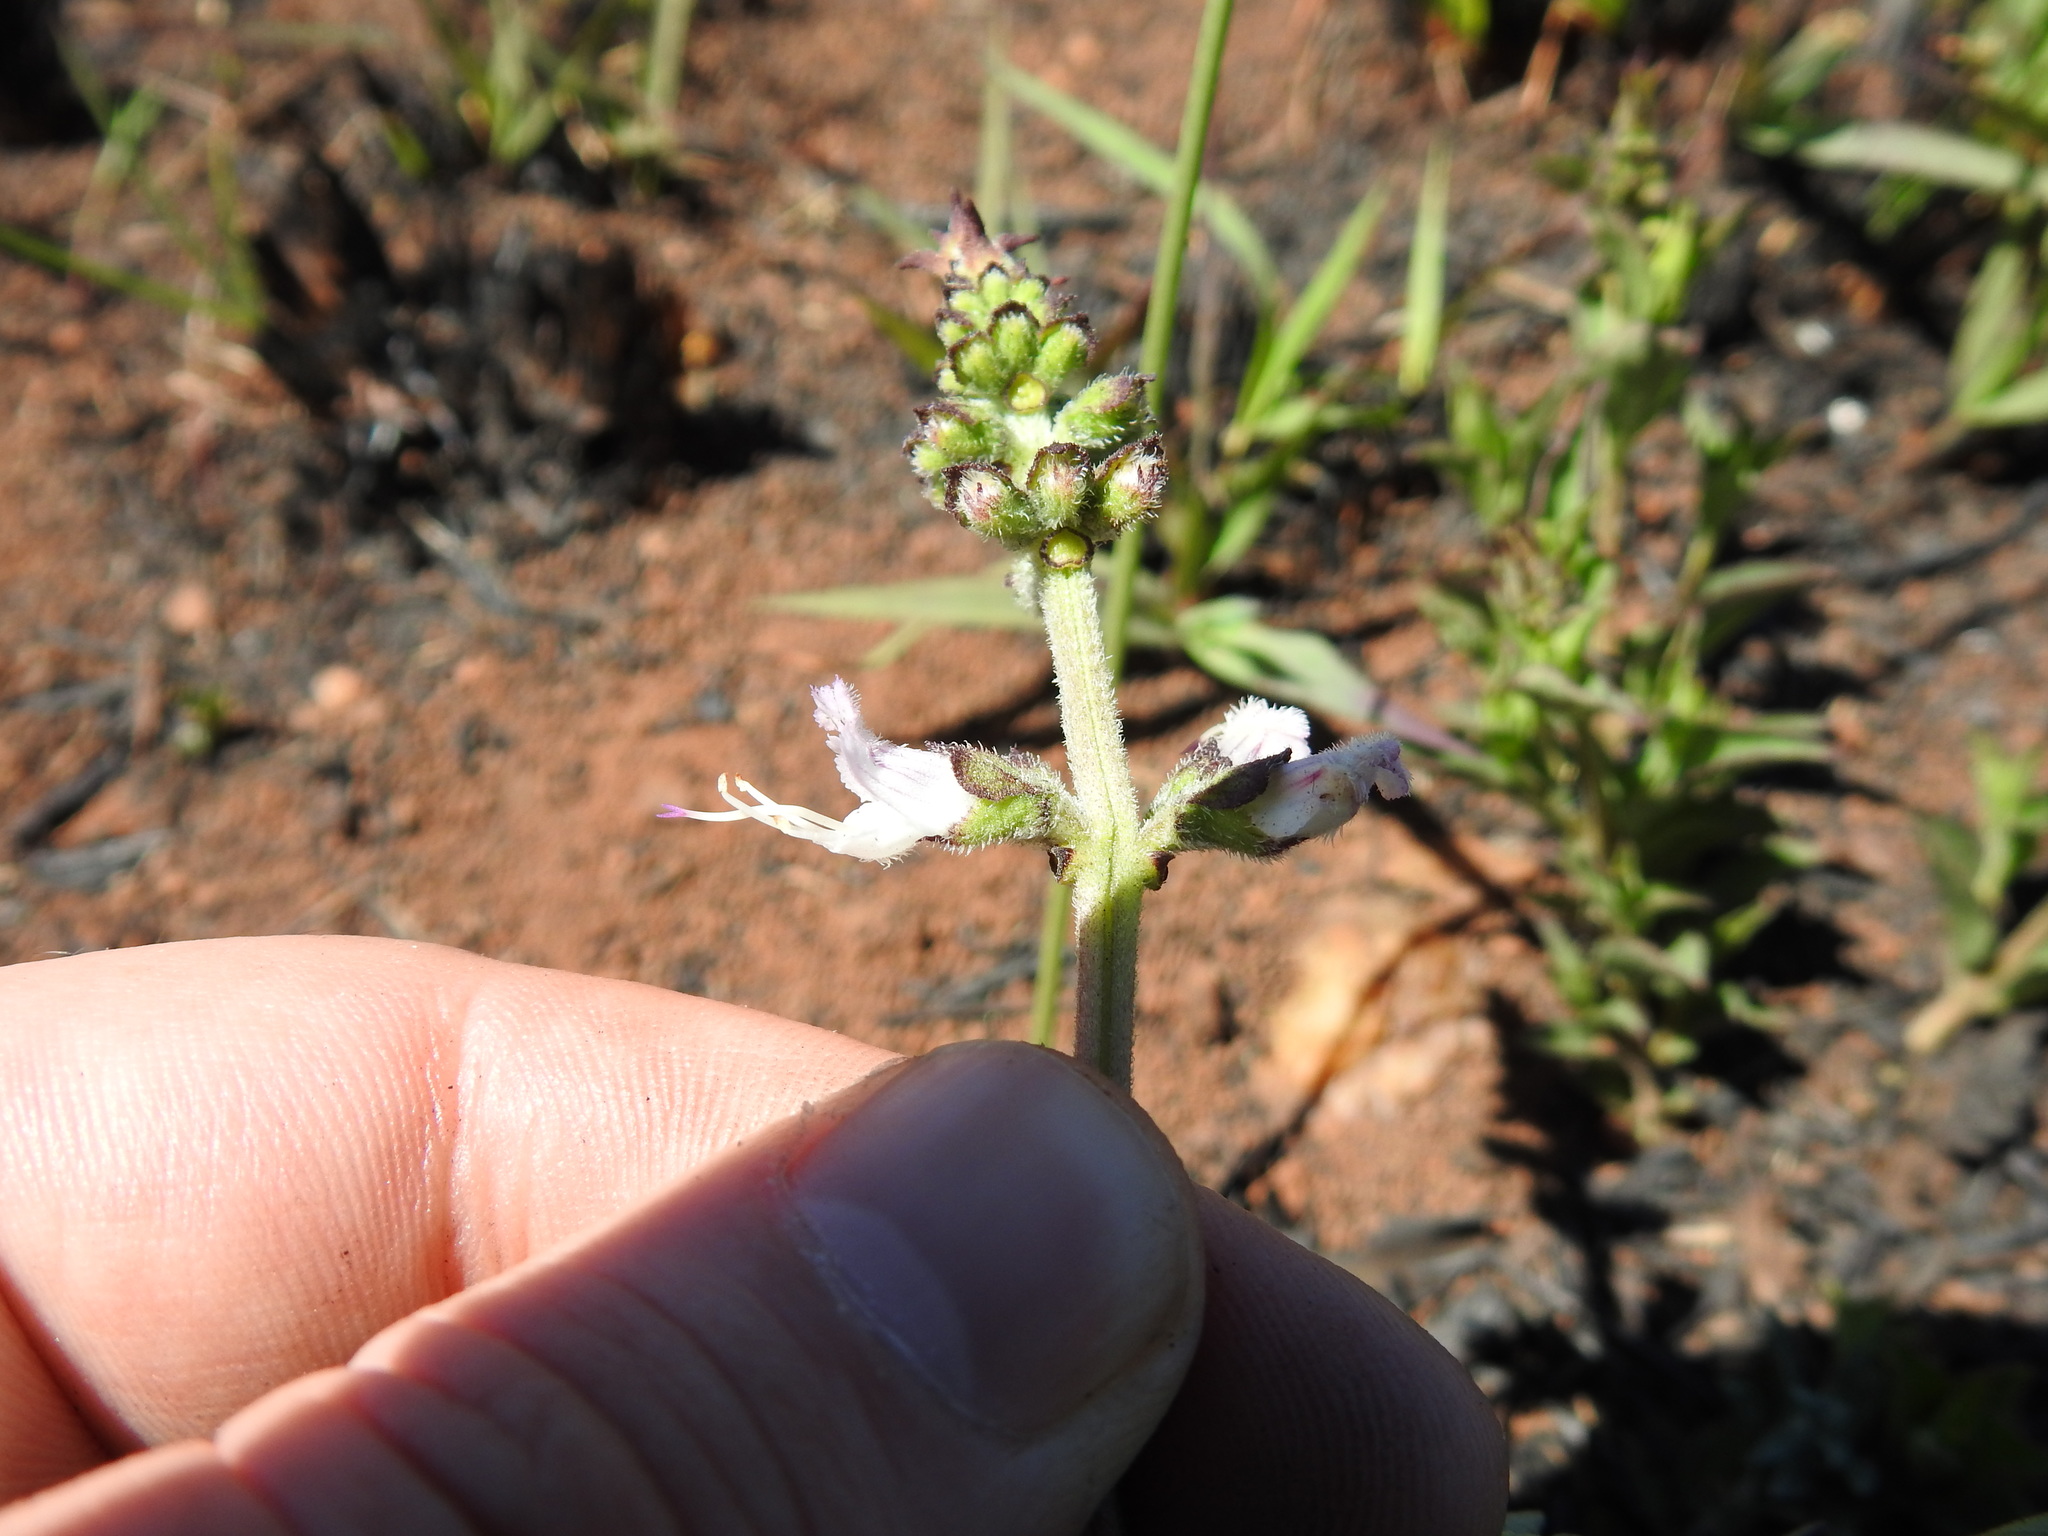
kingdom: Plantae
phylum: Tracheophyta
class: Magnoliopsida
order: Lamiales
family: Lamiaceae
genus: Ocimum
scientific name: Ocimum obovatum
